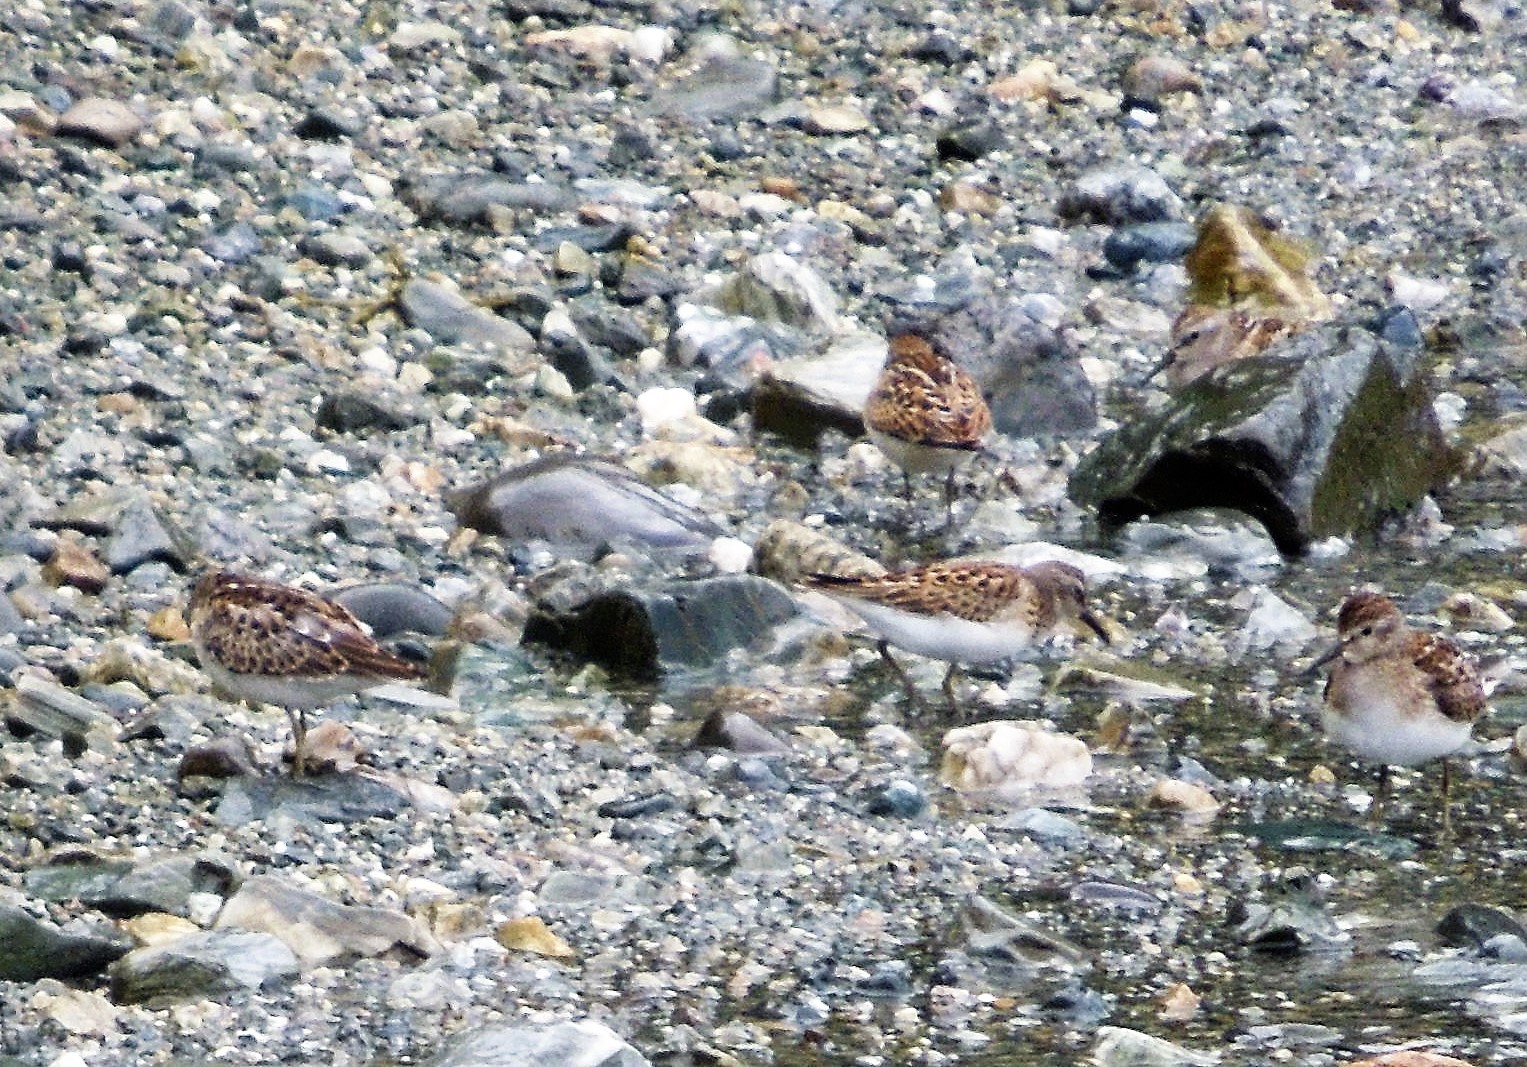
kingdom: Animalia
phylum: Chordata
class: Aves
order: Charadriiformes
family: Scolopacidae
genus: Calidris
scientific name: Calidris minutilla
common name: Least sandpiper
